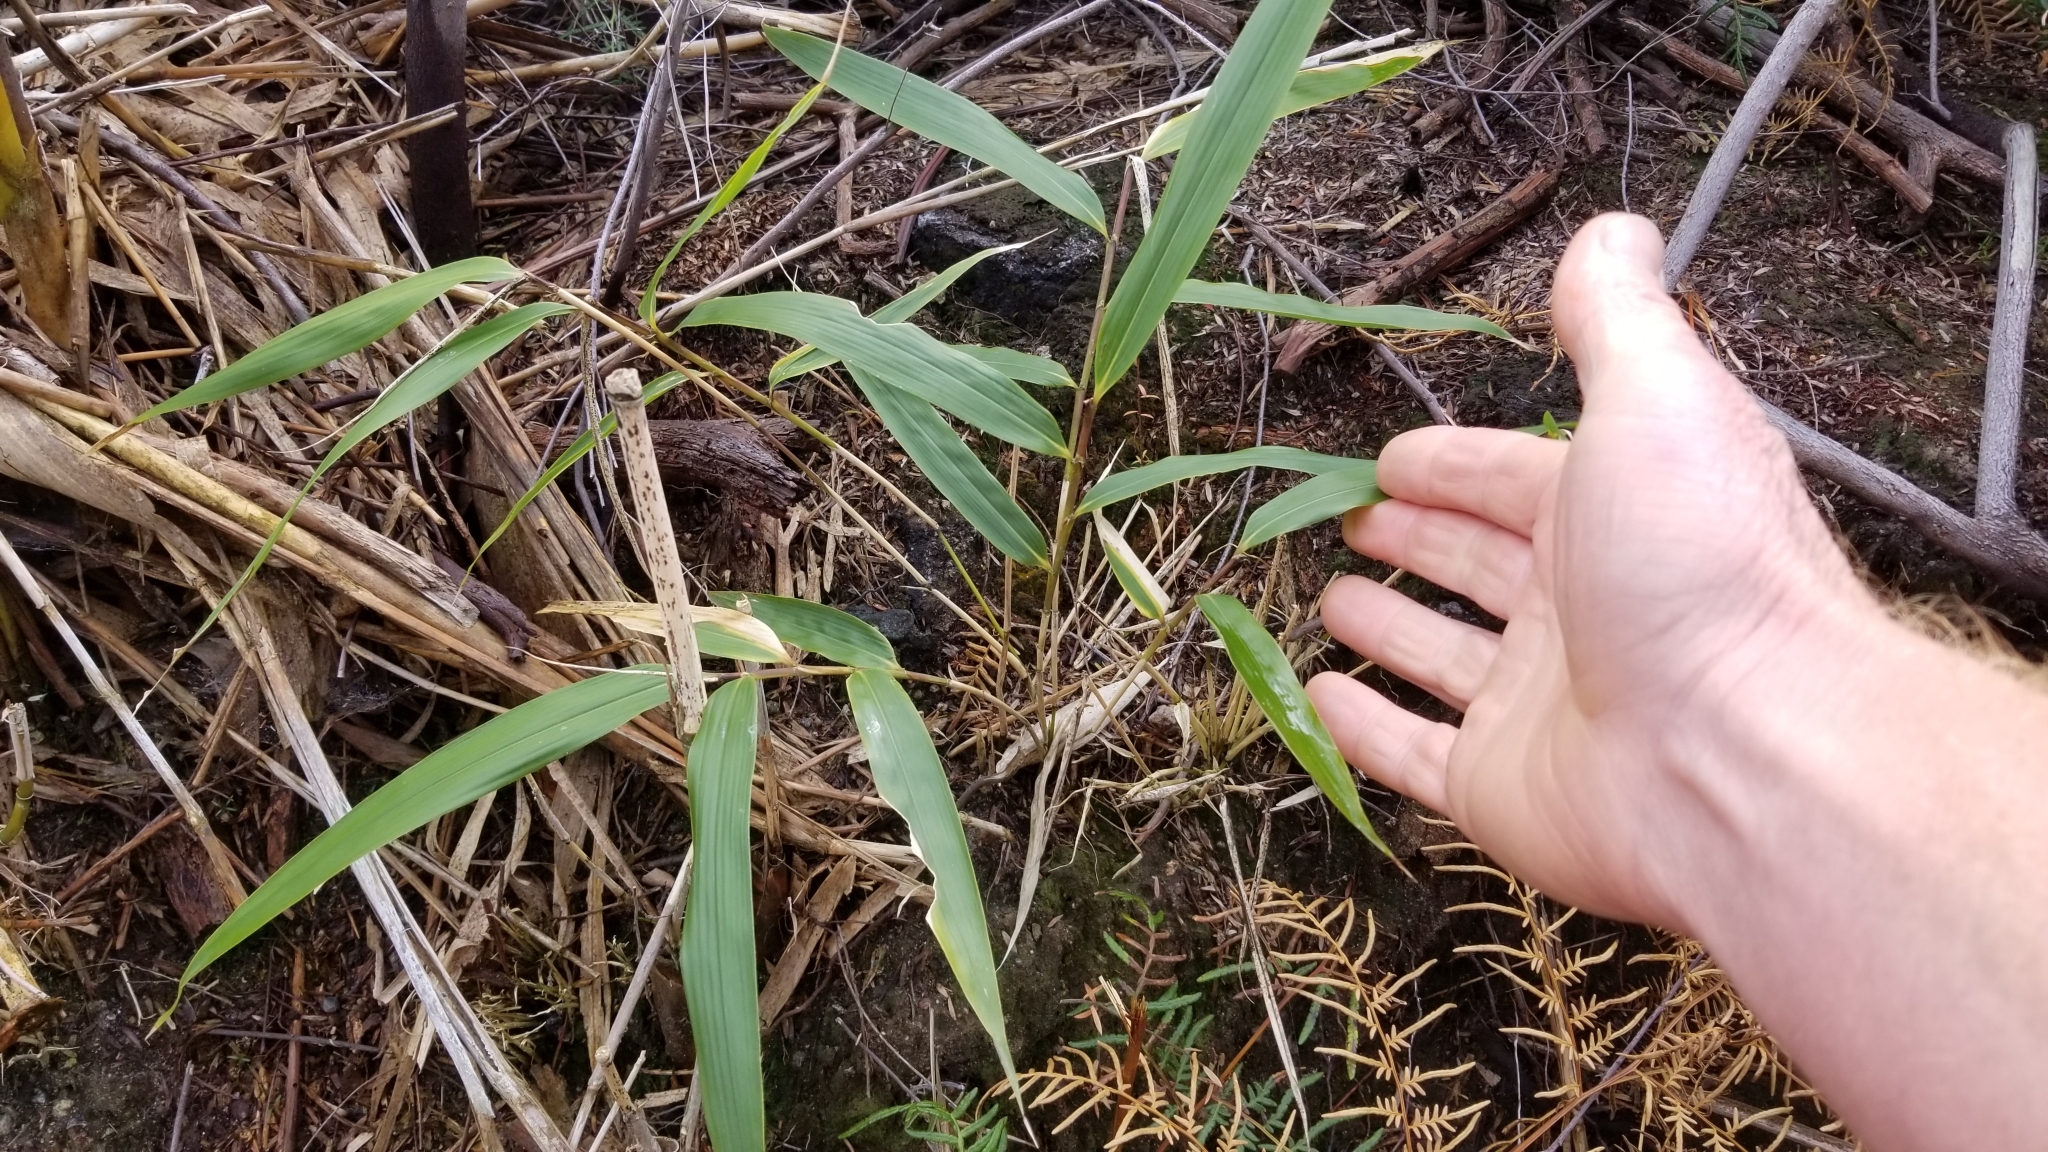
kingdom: Plantae
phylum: Tracheophyta
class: Liliopsida
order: Poales
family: Poaceae
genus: Pseudosasa
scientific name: Pseudosasa japonica
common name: Arrow bamboo
